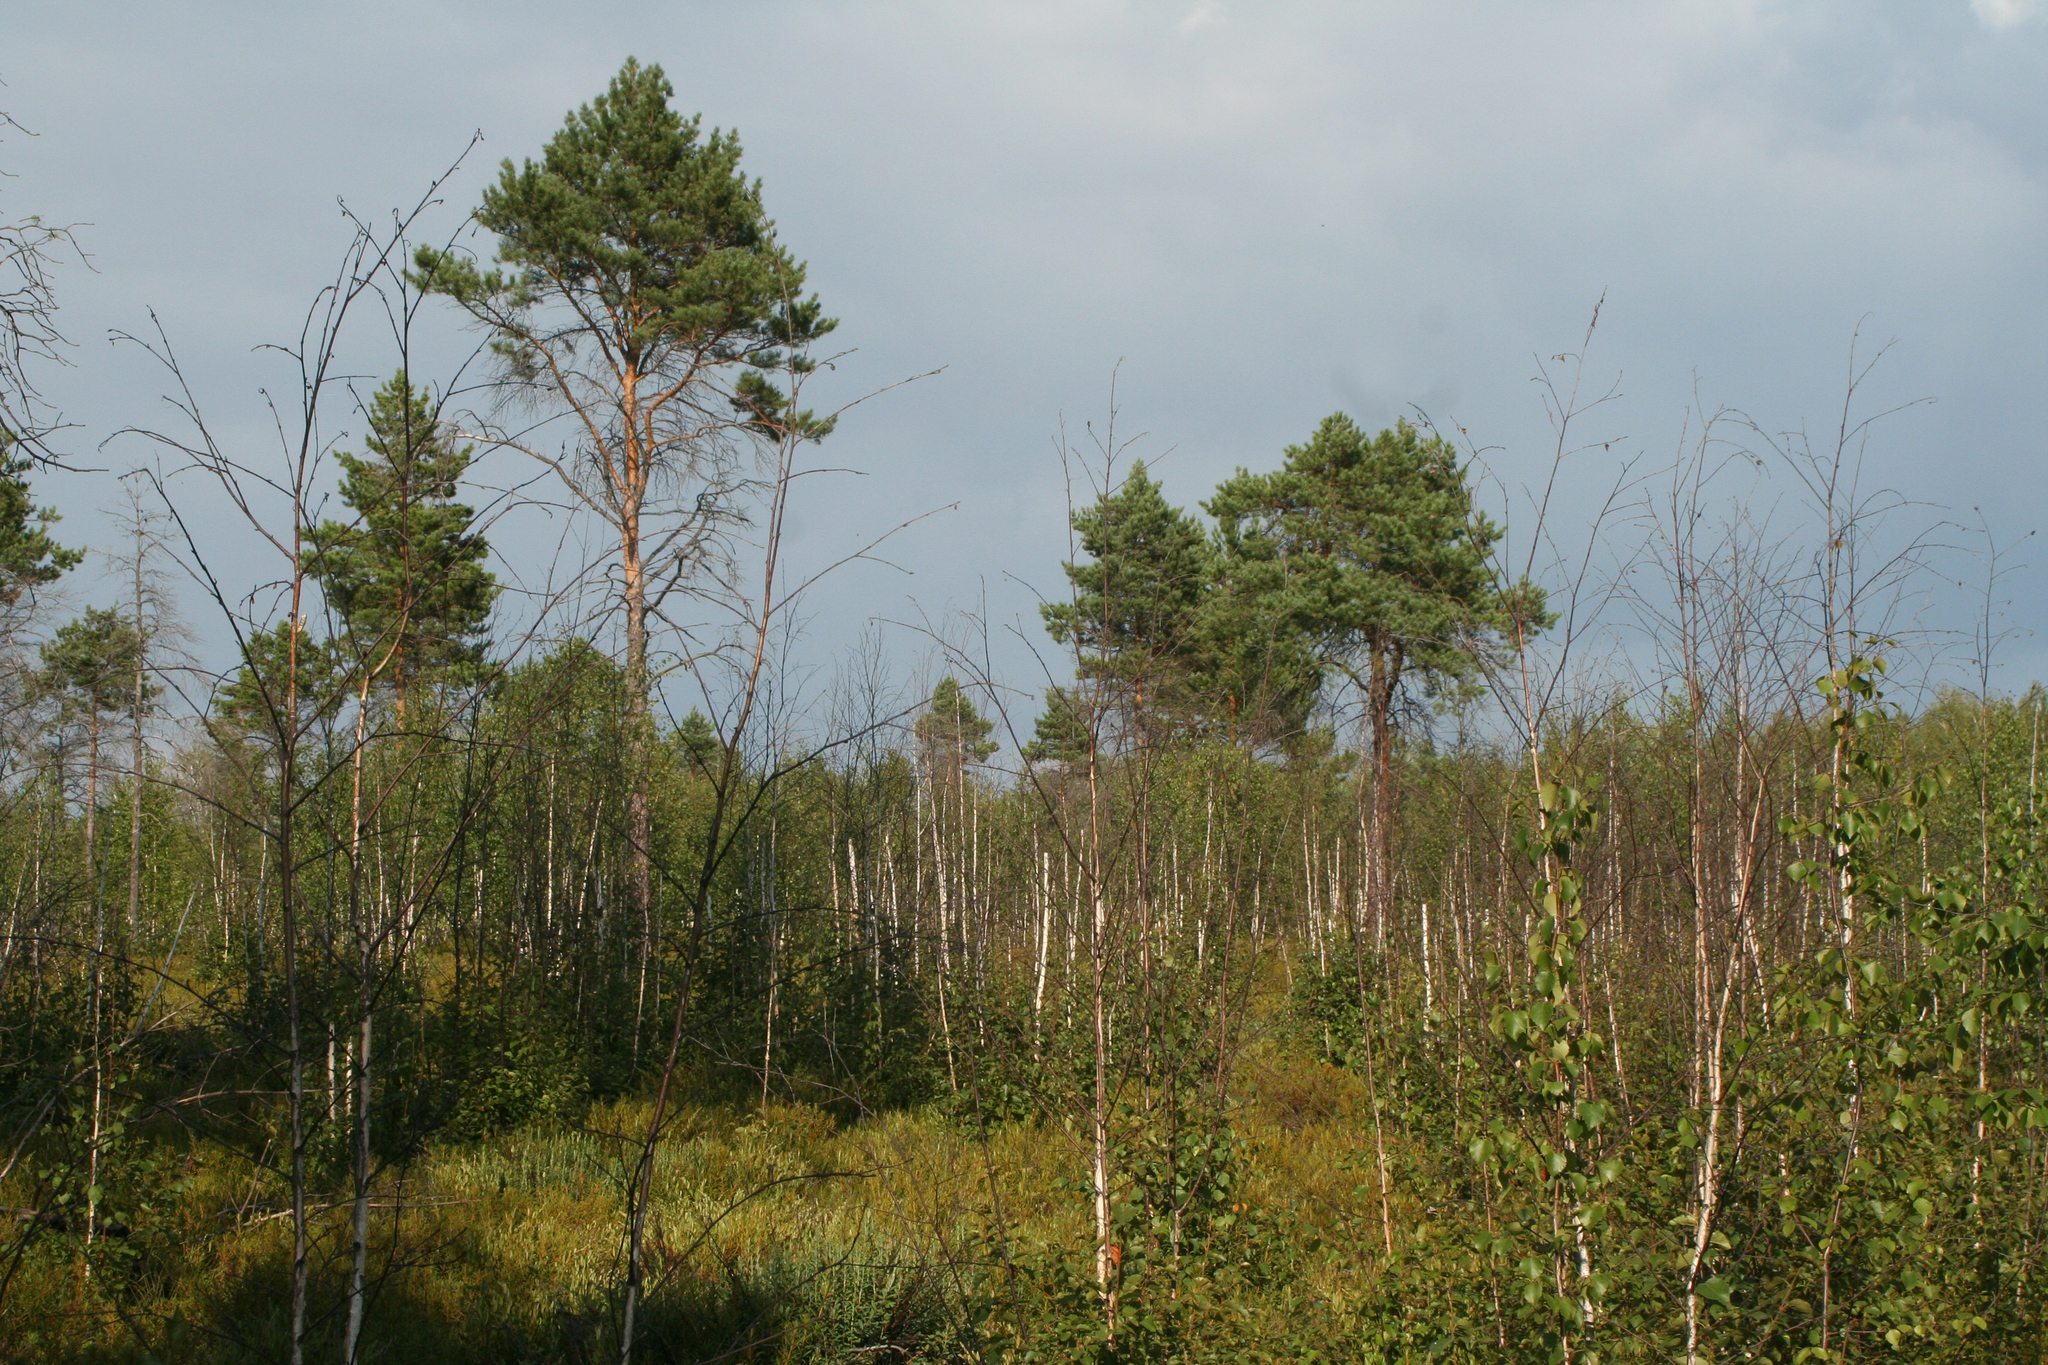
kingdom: Plantae
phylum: Tracheophyta
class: Pinopsida
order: Pinales
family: Pinaceae
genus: Pinus
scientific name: Pinus sylvestris
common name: Scots pine
